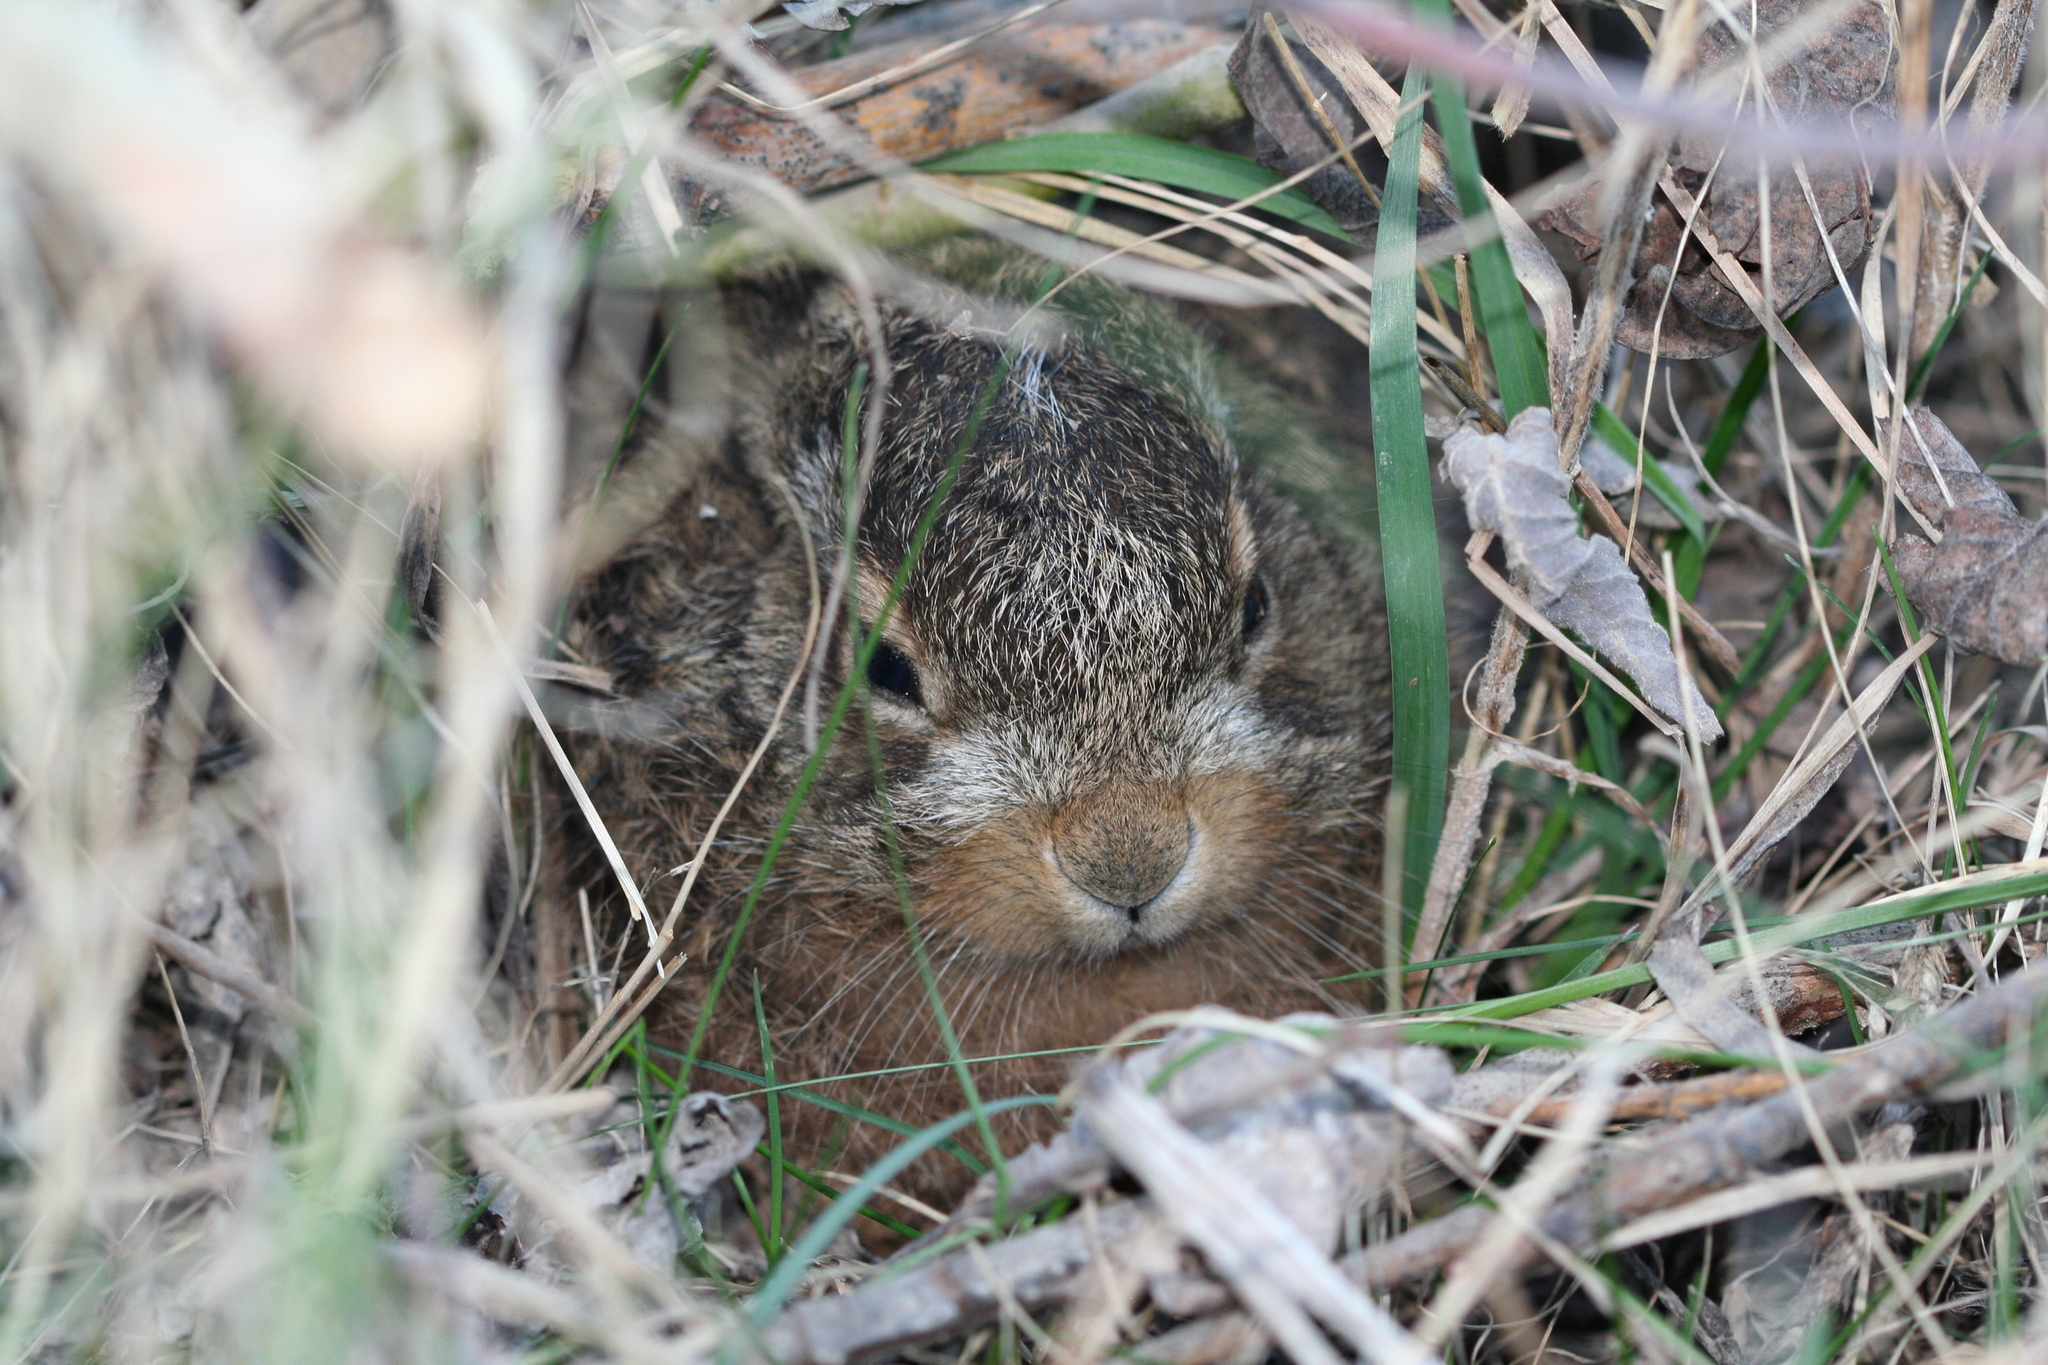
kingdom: Animalia
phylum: Chordata
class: Mammalia
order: Lagomorpha
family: Leporidae
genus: Lepus
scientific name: Lepus europaeus
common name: European hare
